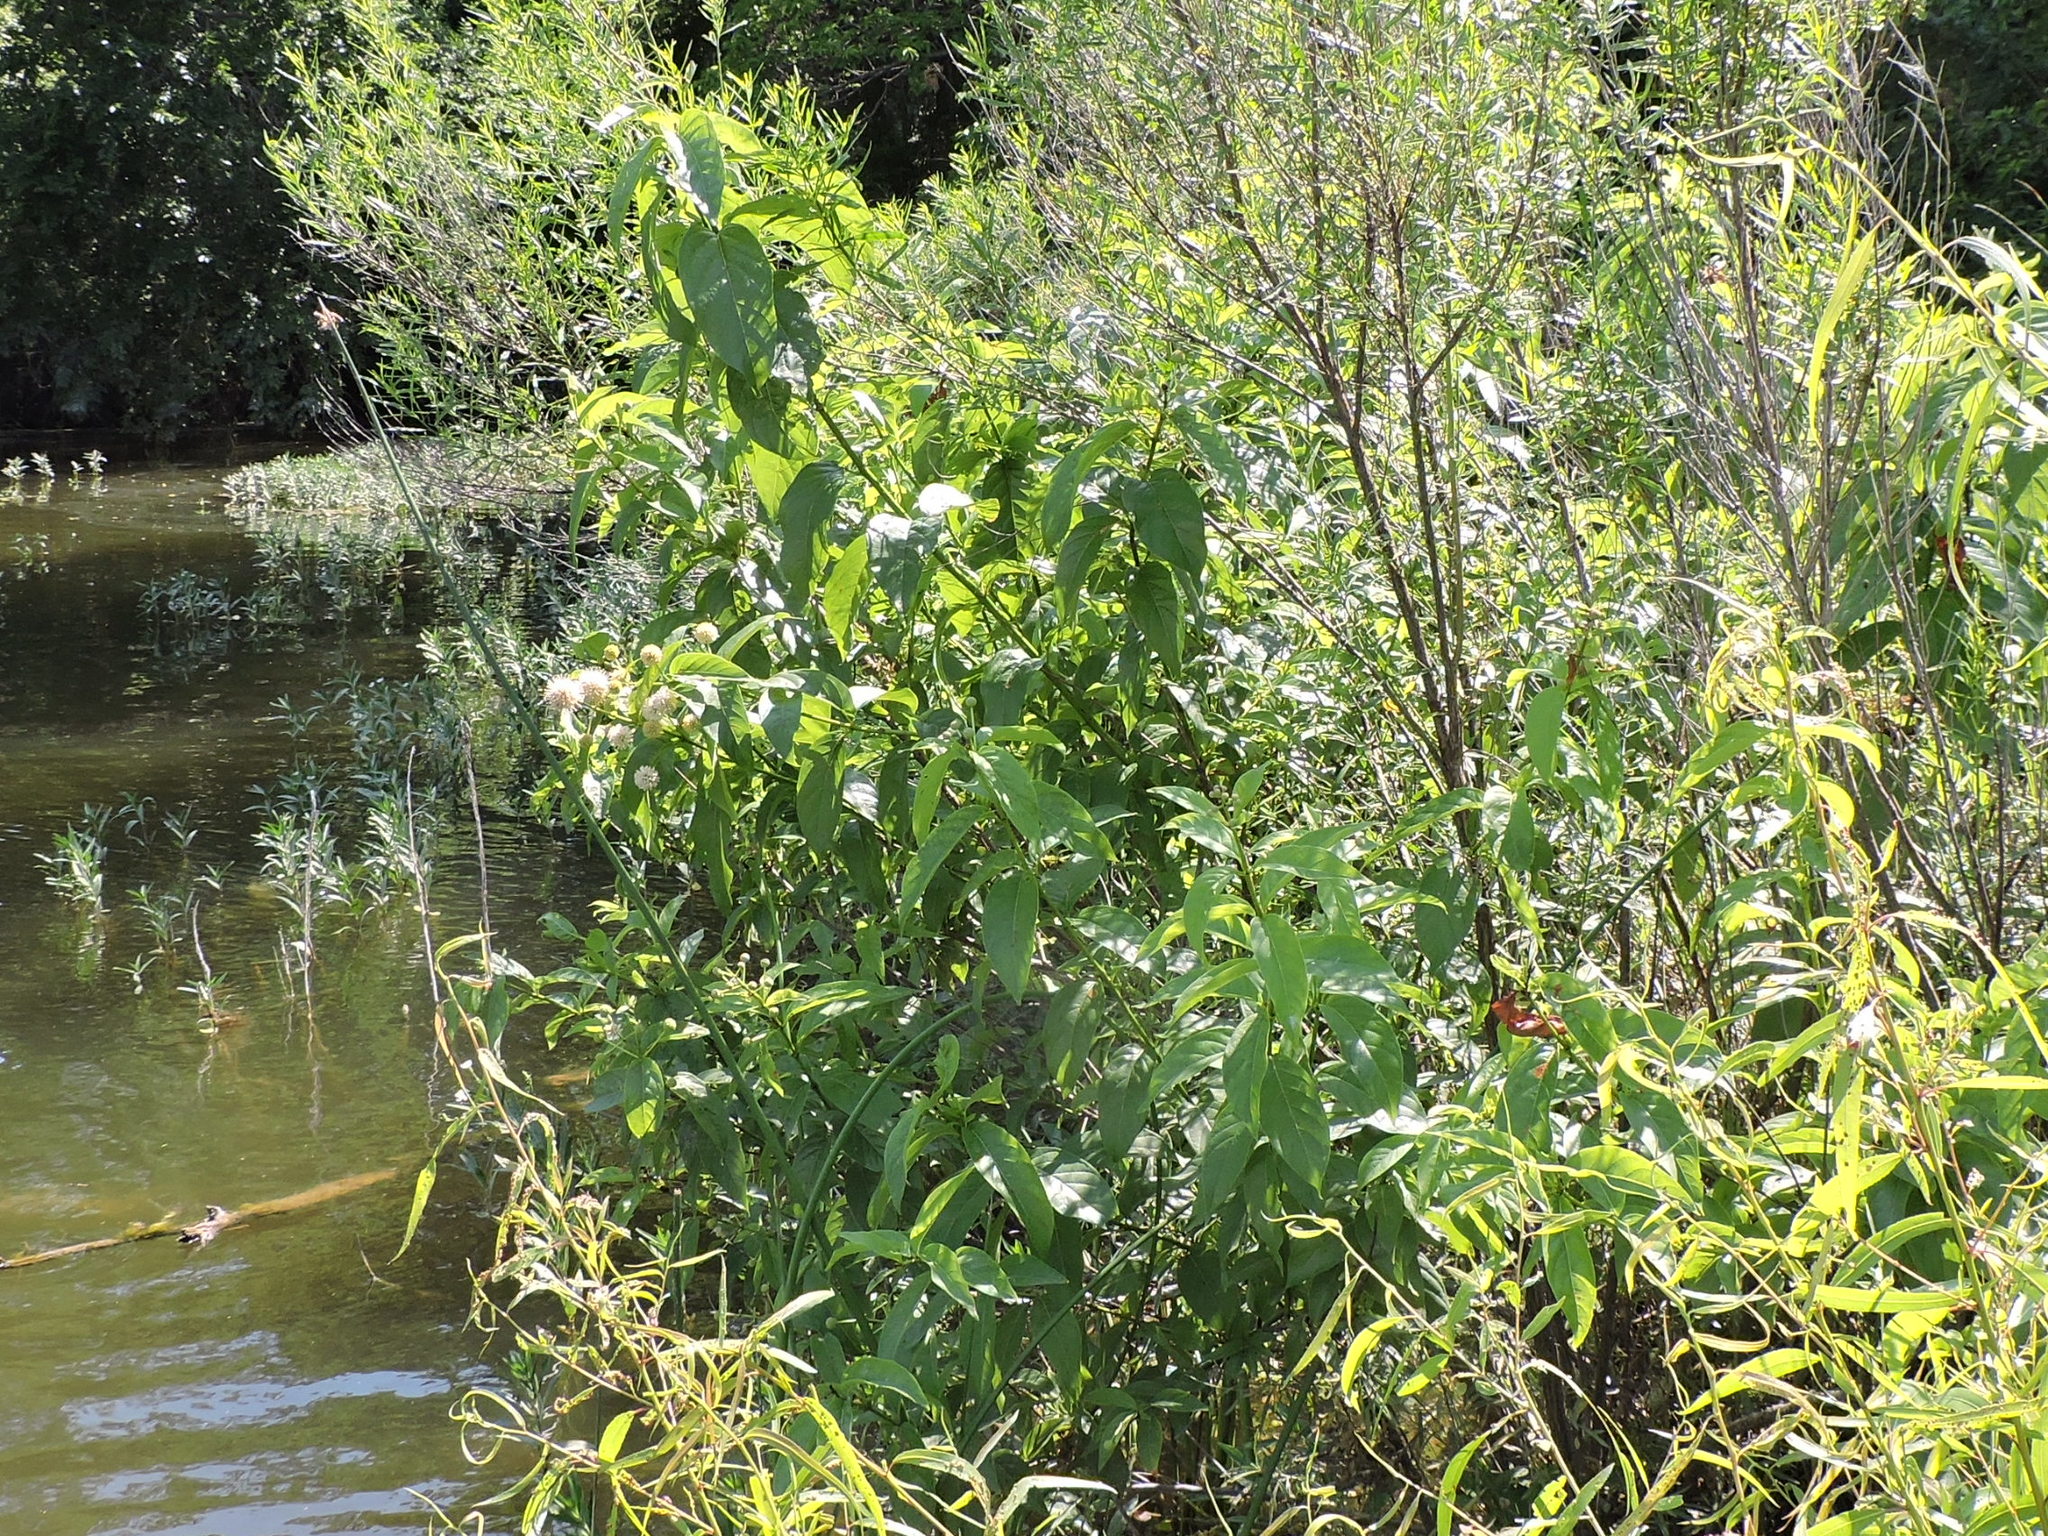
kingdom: Plantae
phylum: Tracheophyta
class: Magnoliopsida
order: Gentianales
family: Rubiaceae
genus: Cephalanthus
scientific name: Cephalanthus occidentalis
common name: Button-willow
